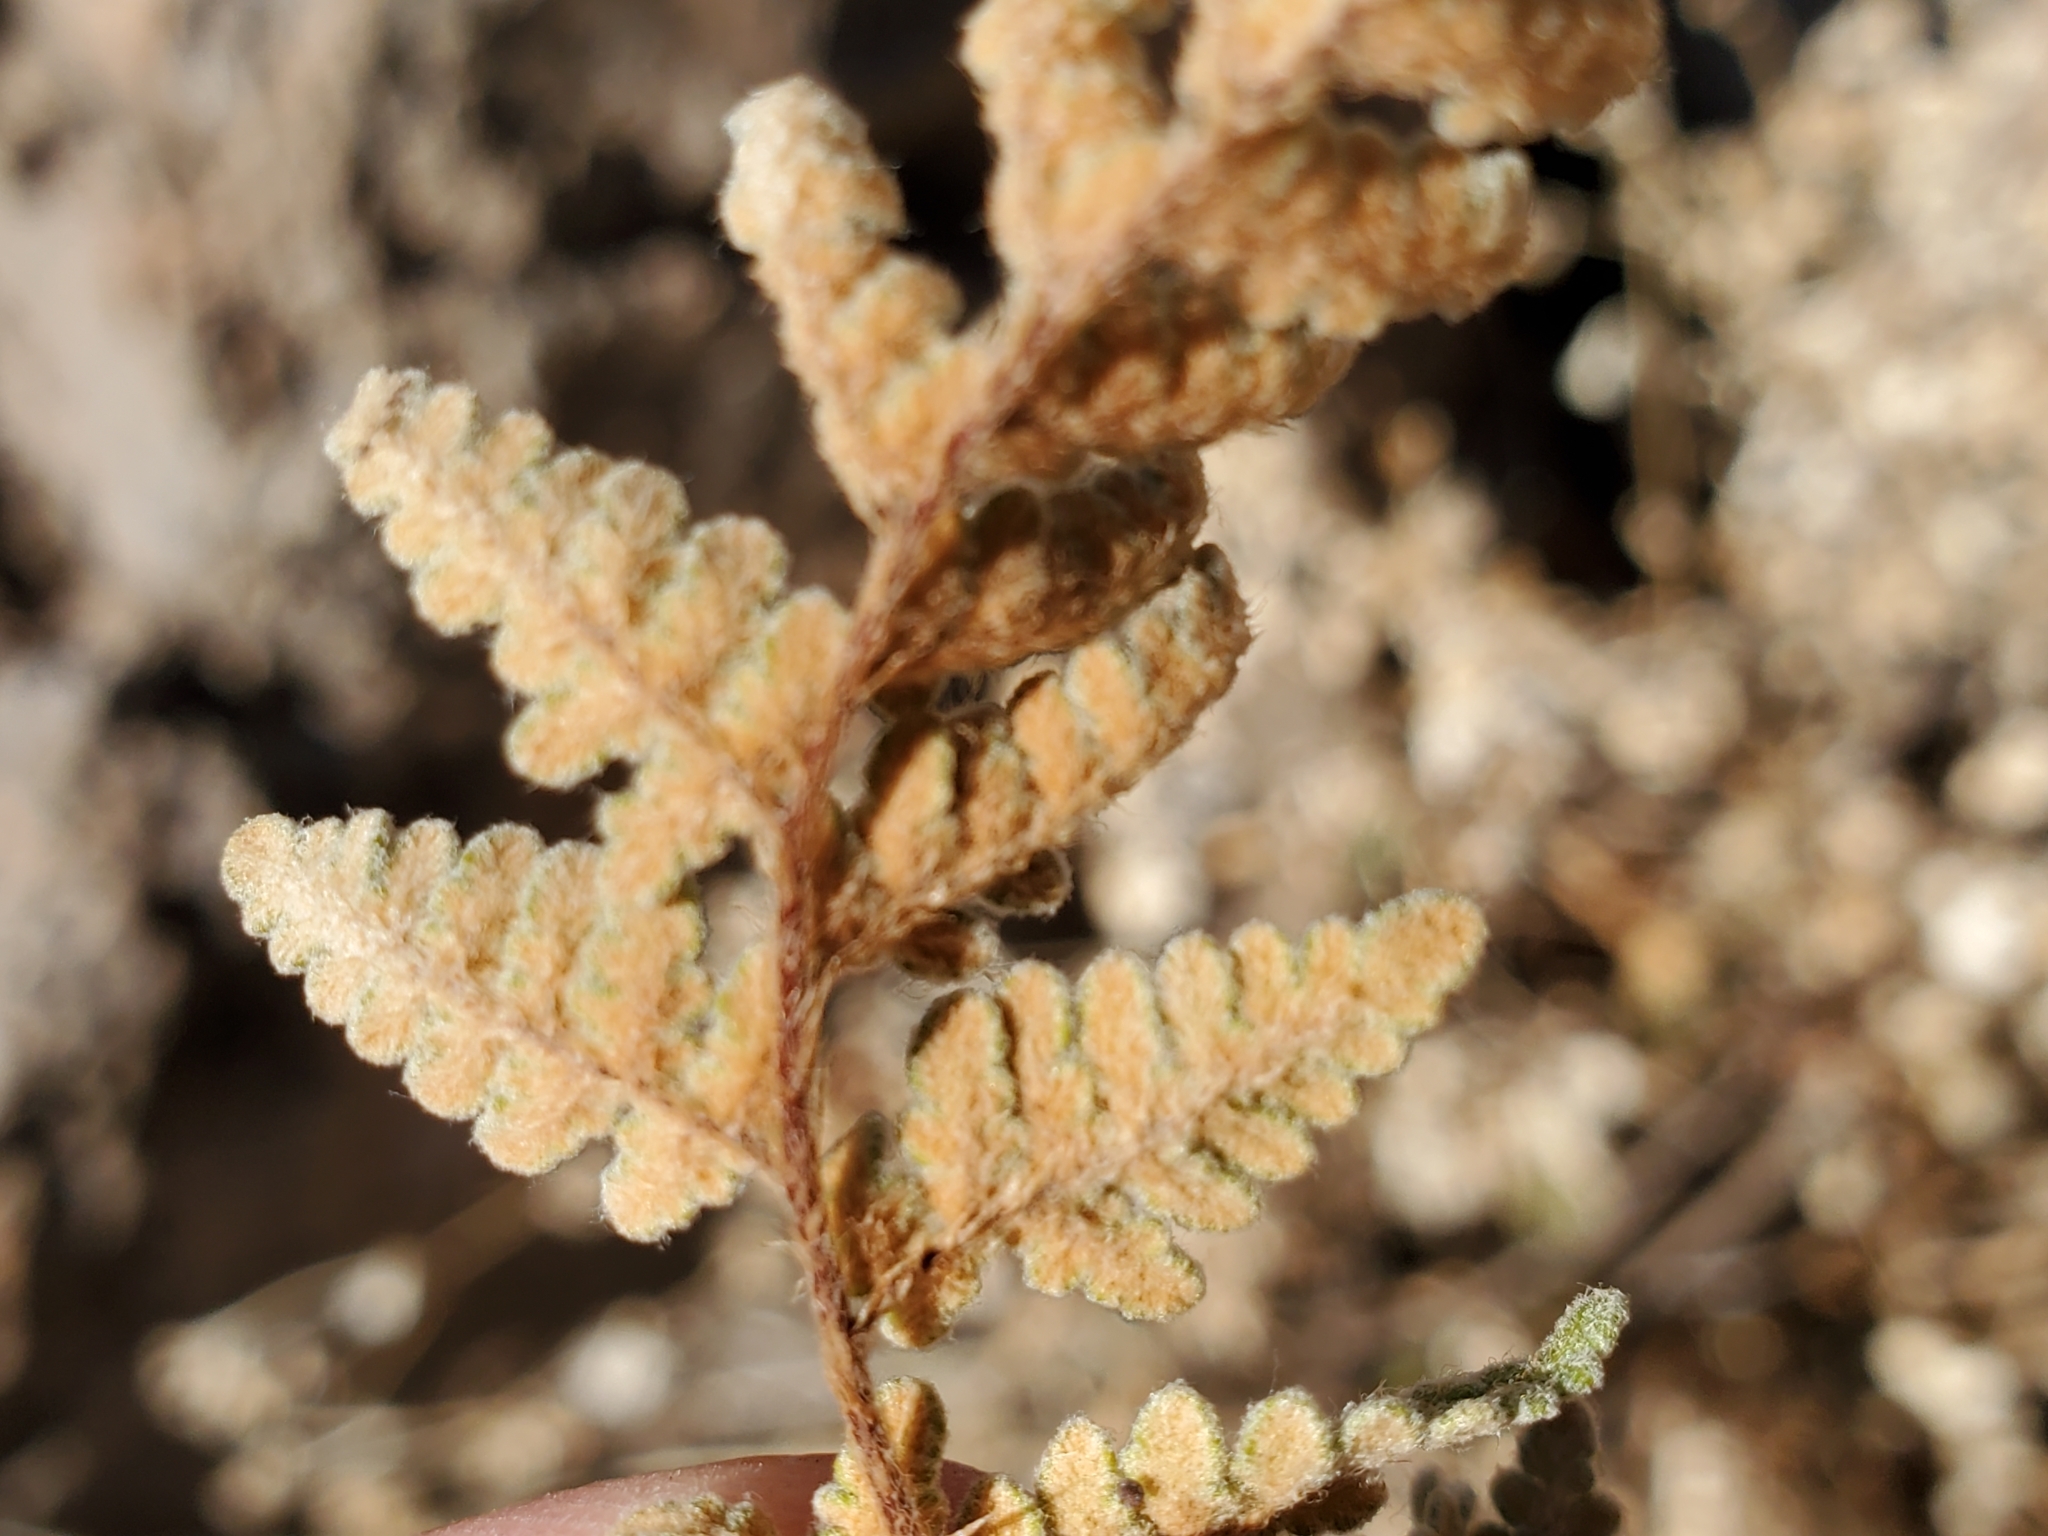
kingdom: Plantae
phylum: Tracheophyta
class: Polypodiopsida
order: Polypodiales
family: Pteridaceae
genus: Myriopteris
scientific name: Myriopteris rufa
